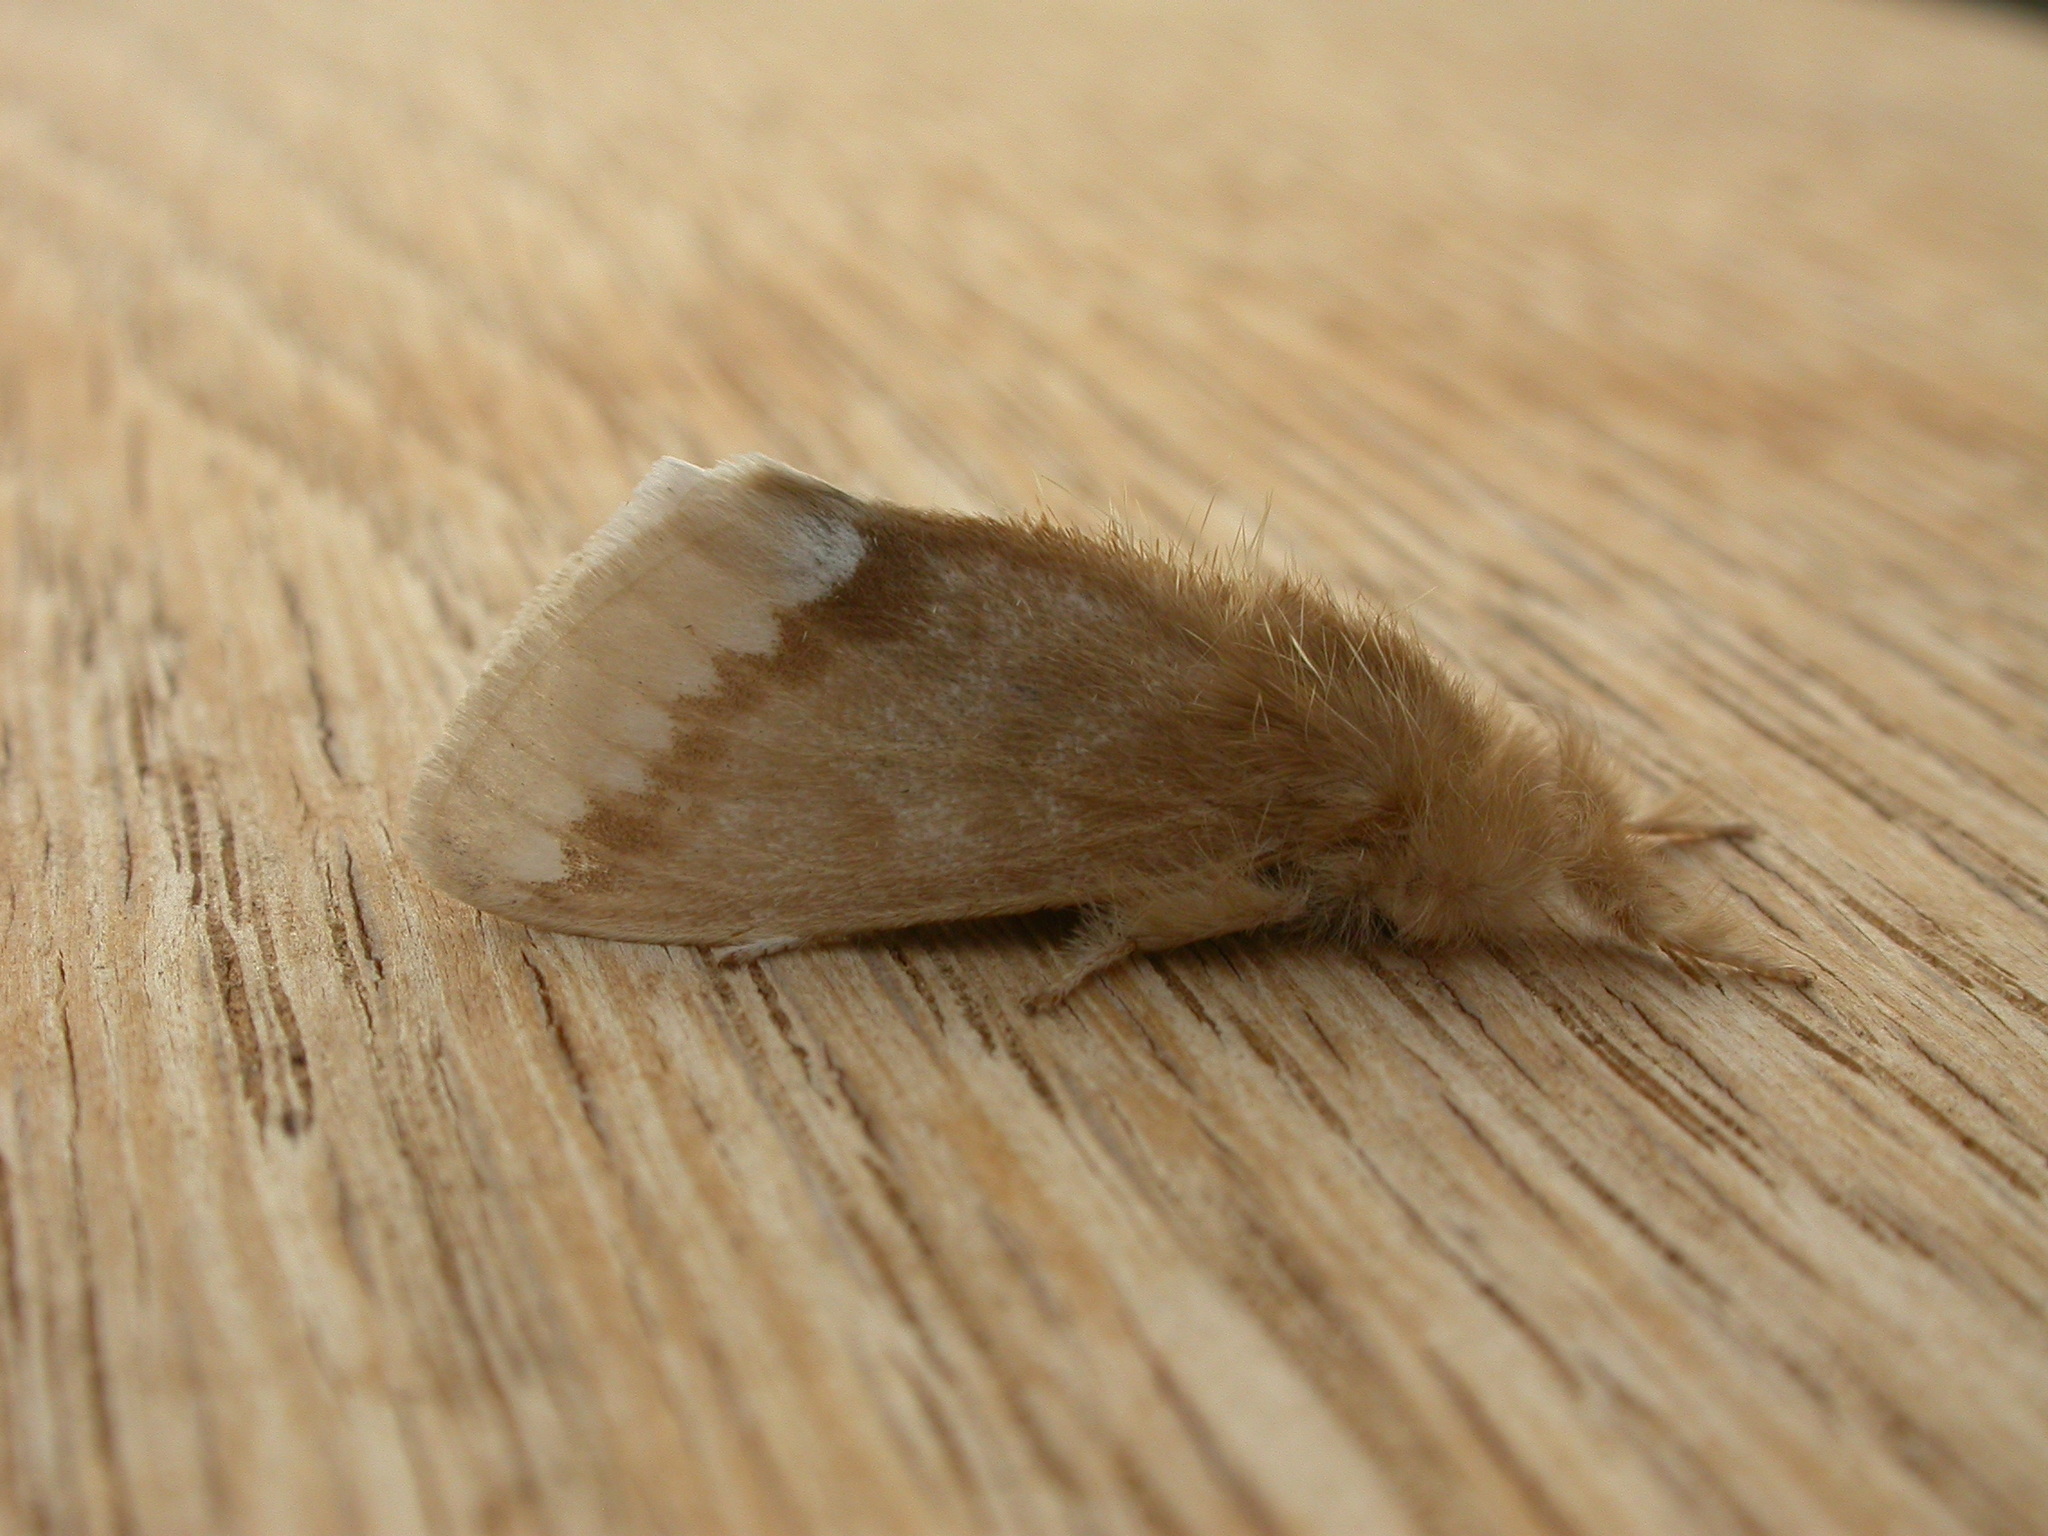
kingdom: Animalia
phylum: Arthropoda
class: Insecta
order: Lepidoptera
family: Erebidae
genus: Euproctis
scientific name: Euproctis
